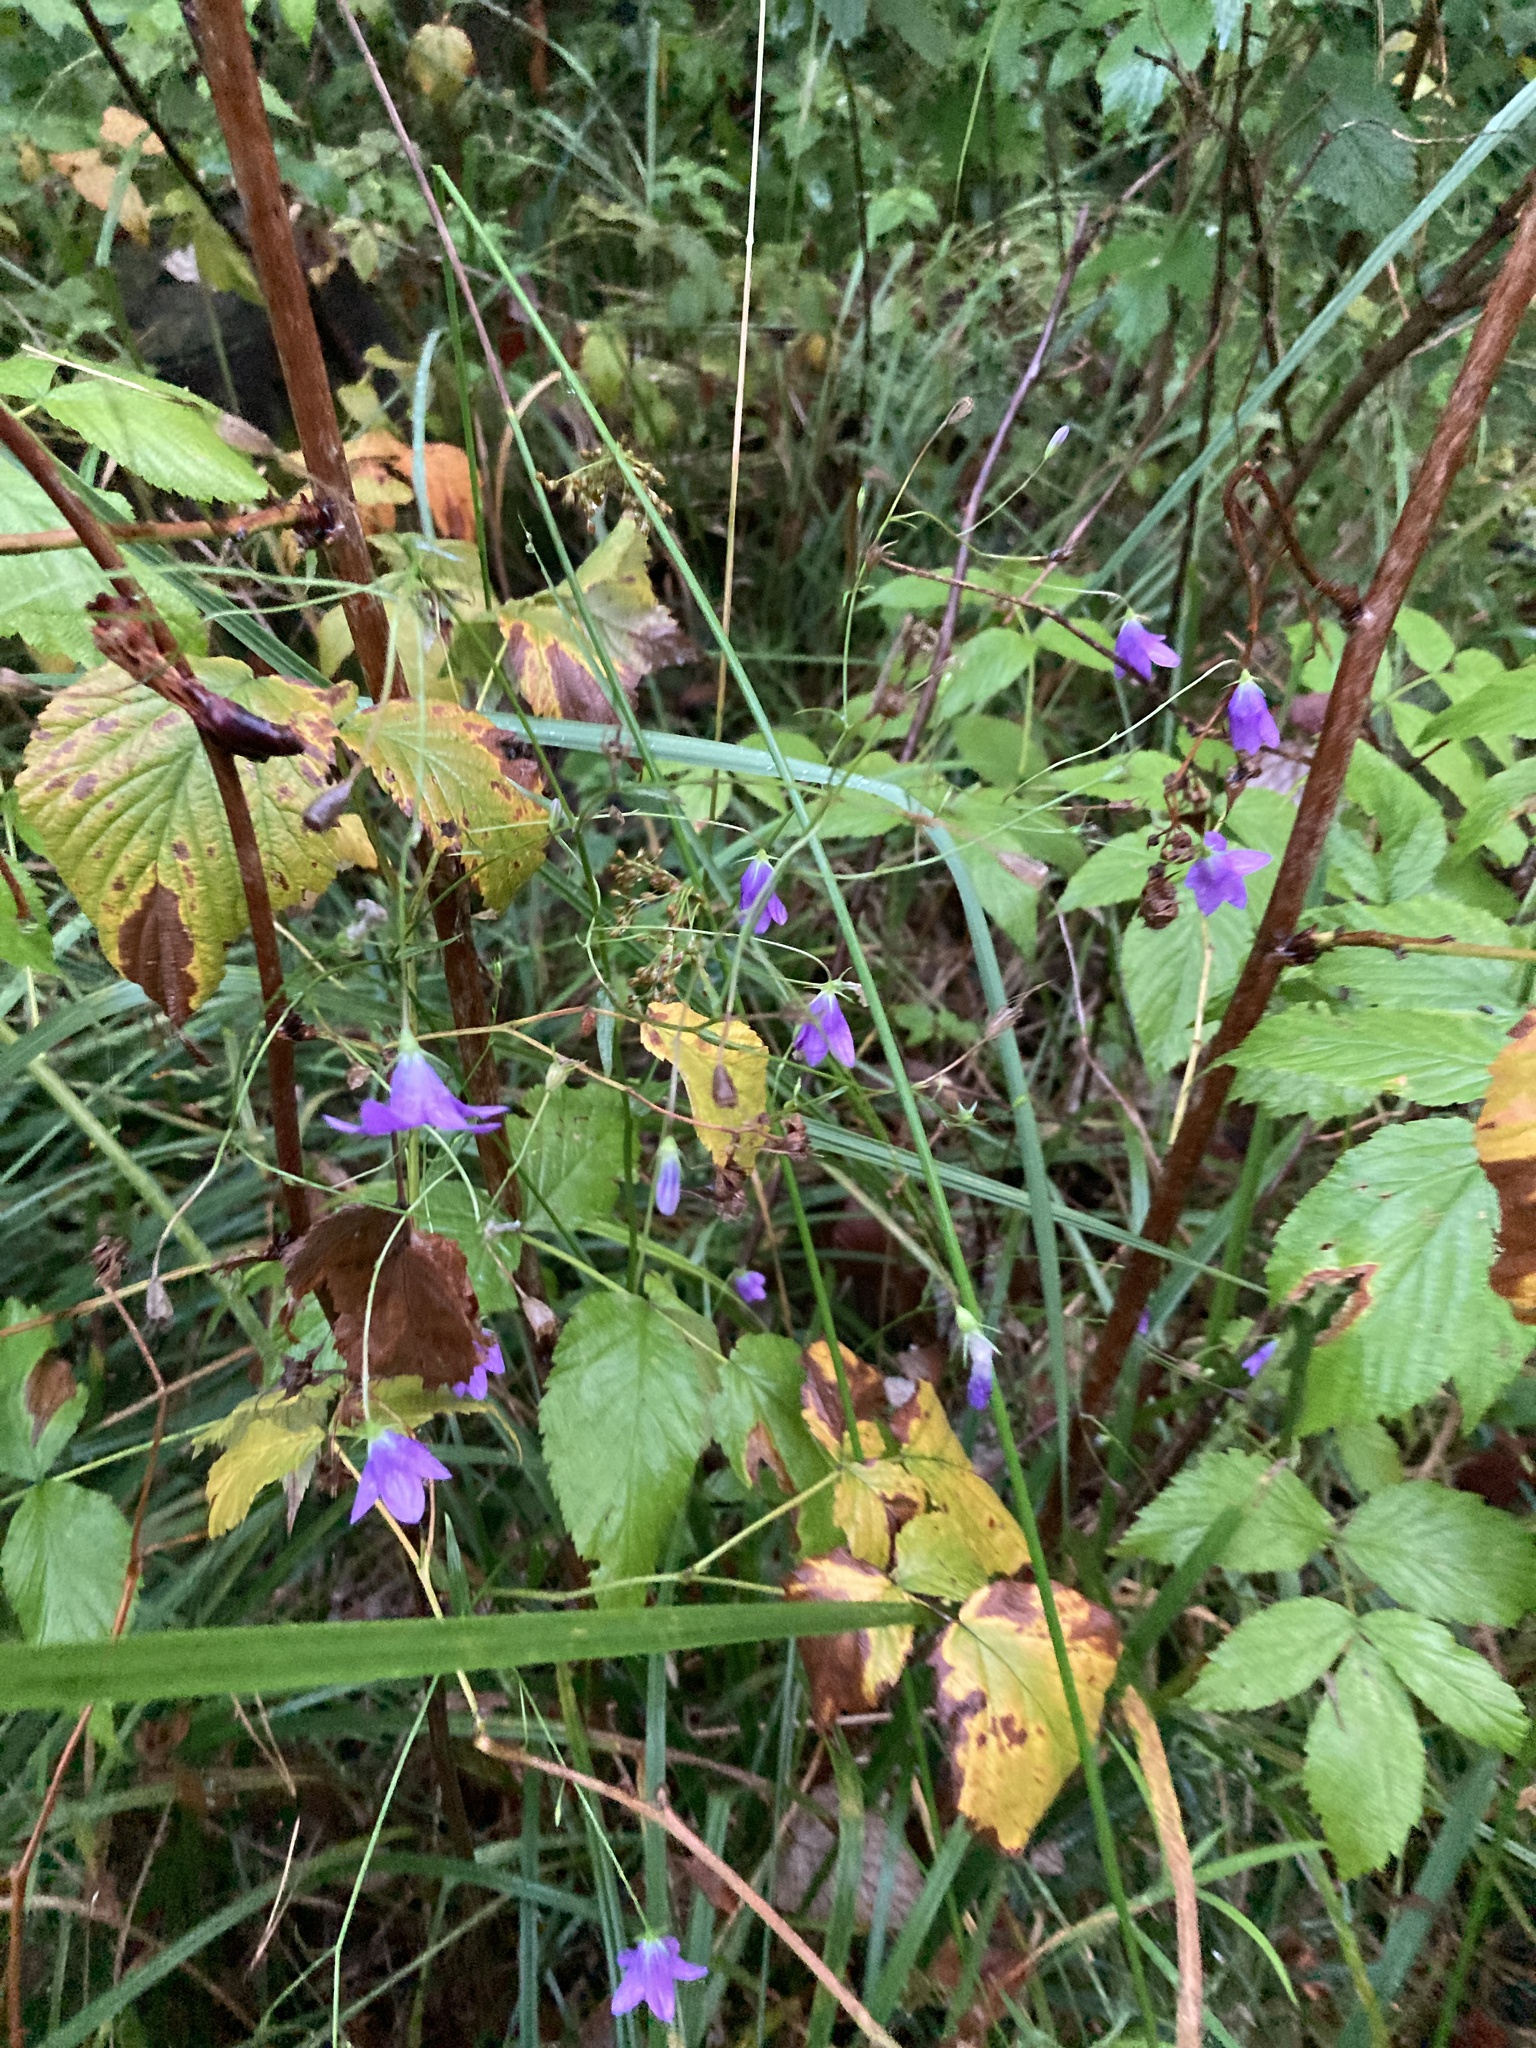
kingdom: Plantae
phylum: Tracheophyta
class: Magnoliopsida
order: Asterales
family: Campanulaceae
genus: Campanula
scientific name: Campanula patula
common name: Spreading bellflower
